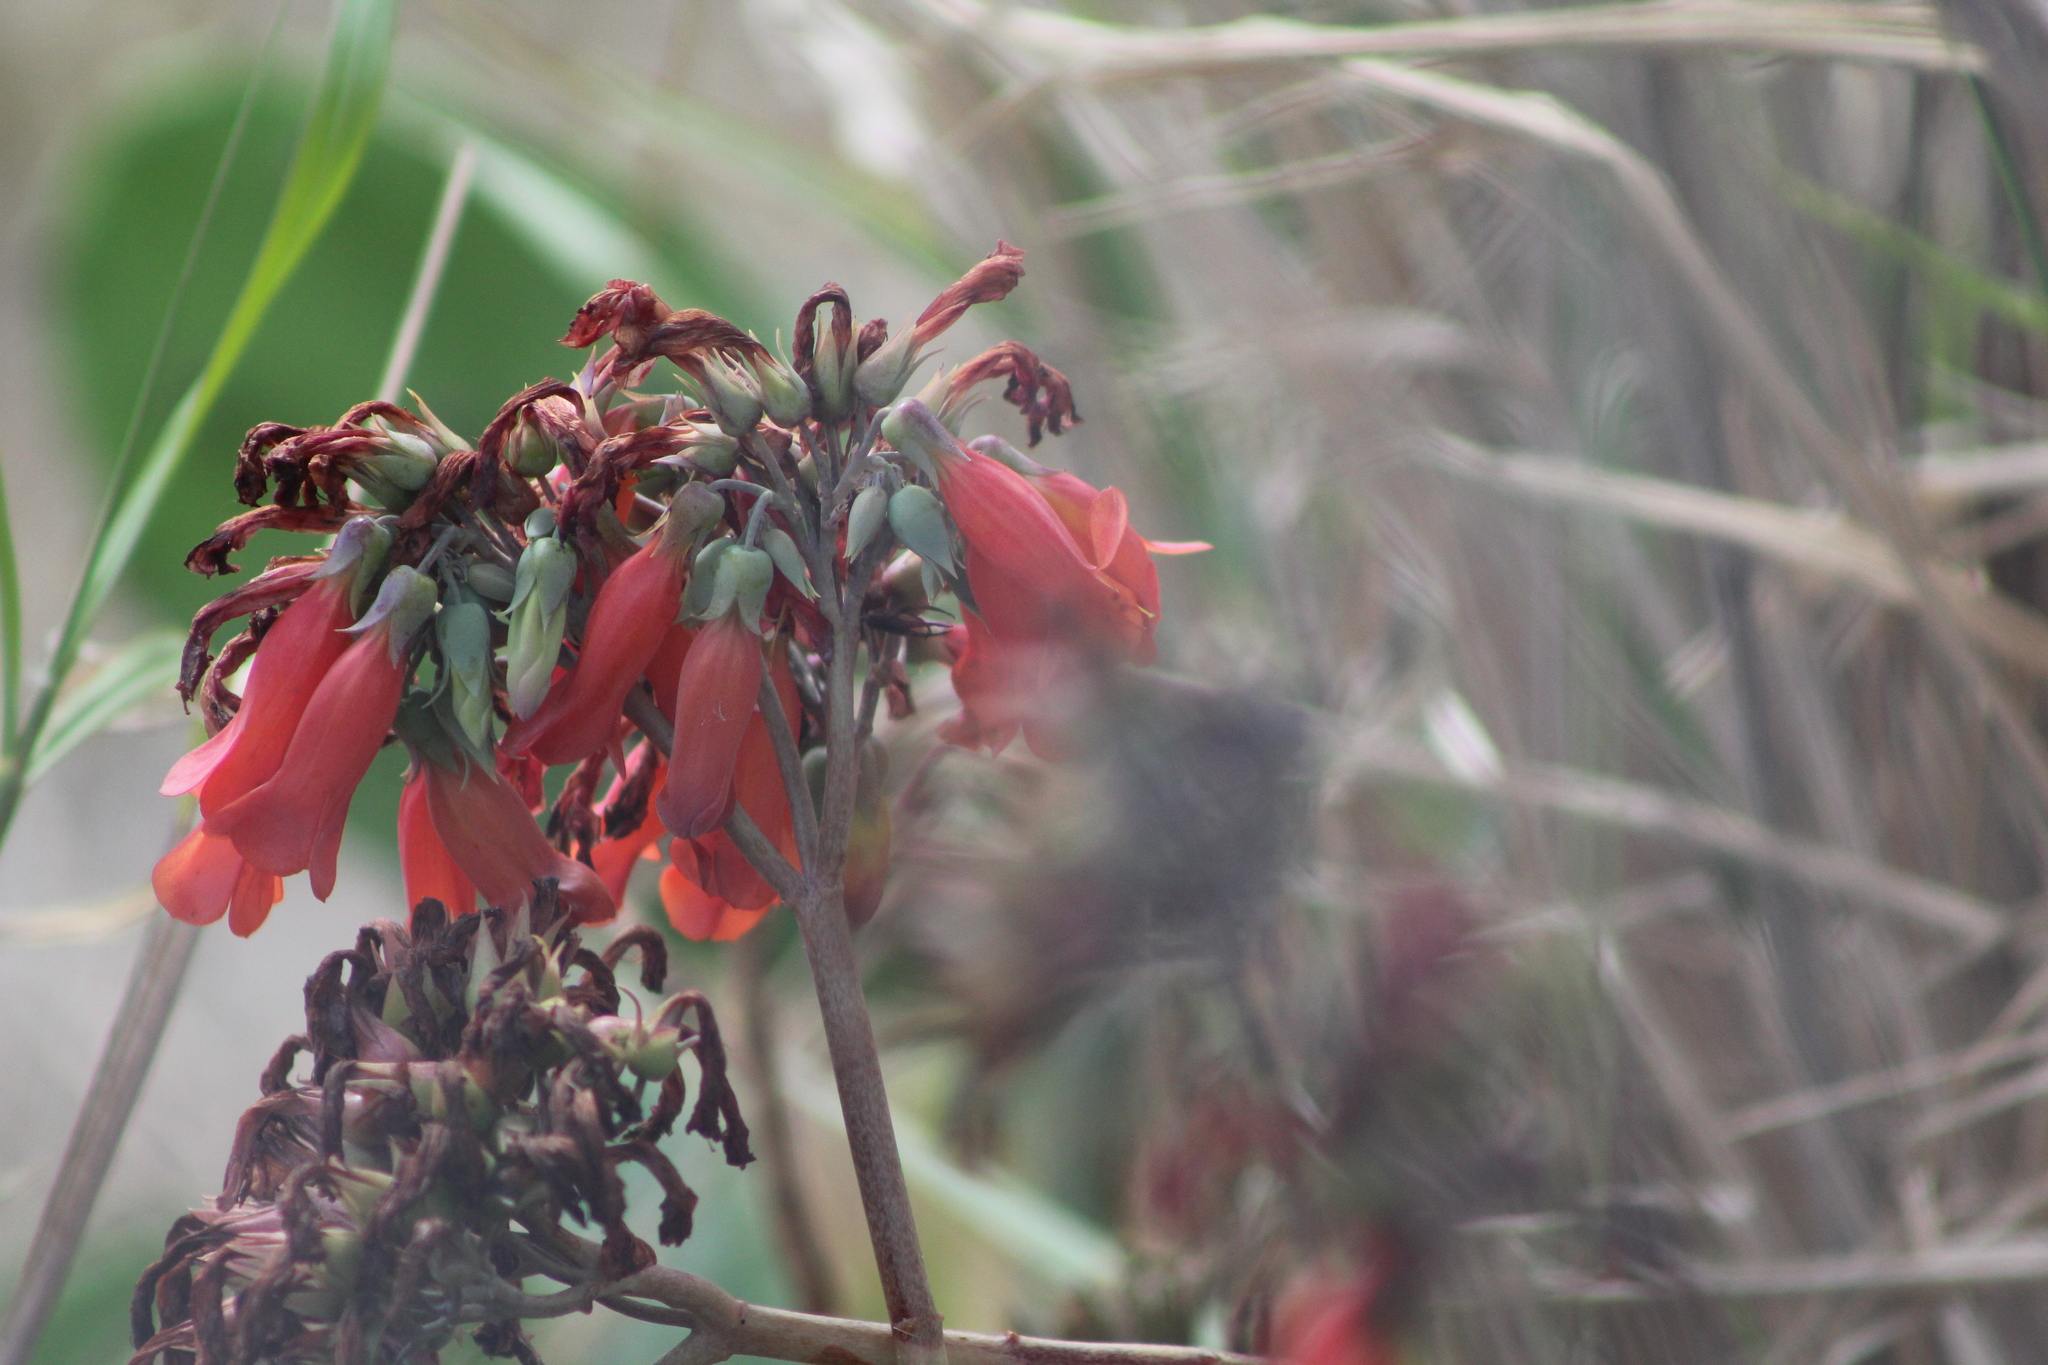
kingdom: Chromista
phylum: Ciliophora
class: Gymnostomatea
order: Spathidiida
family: Spathidiidae
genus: Bryophyllum
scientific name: Bryophyllum
